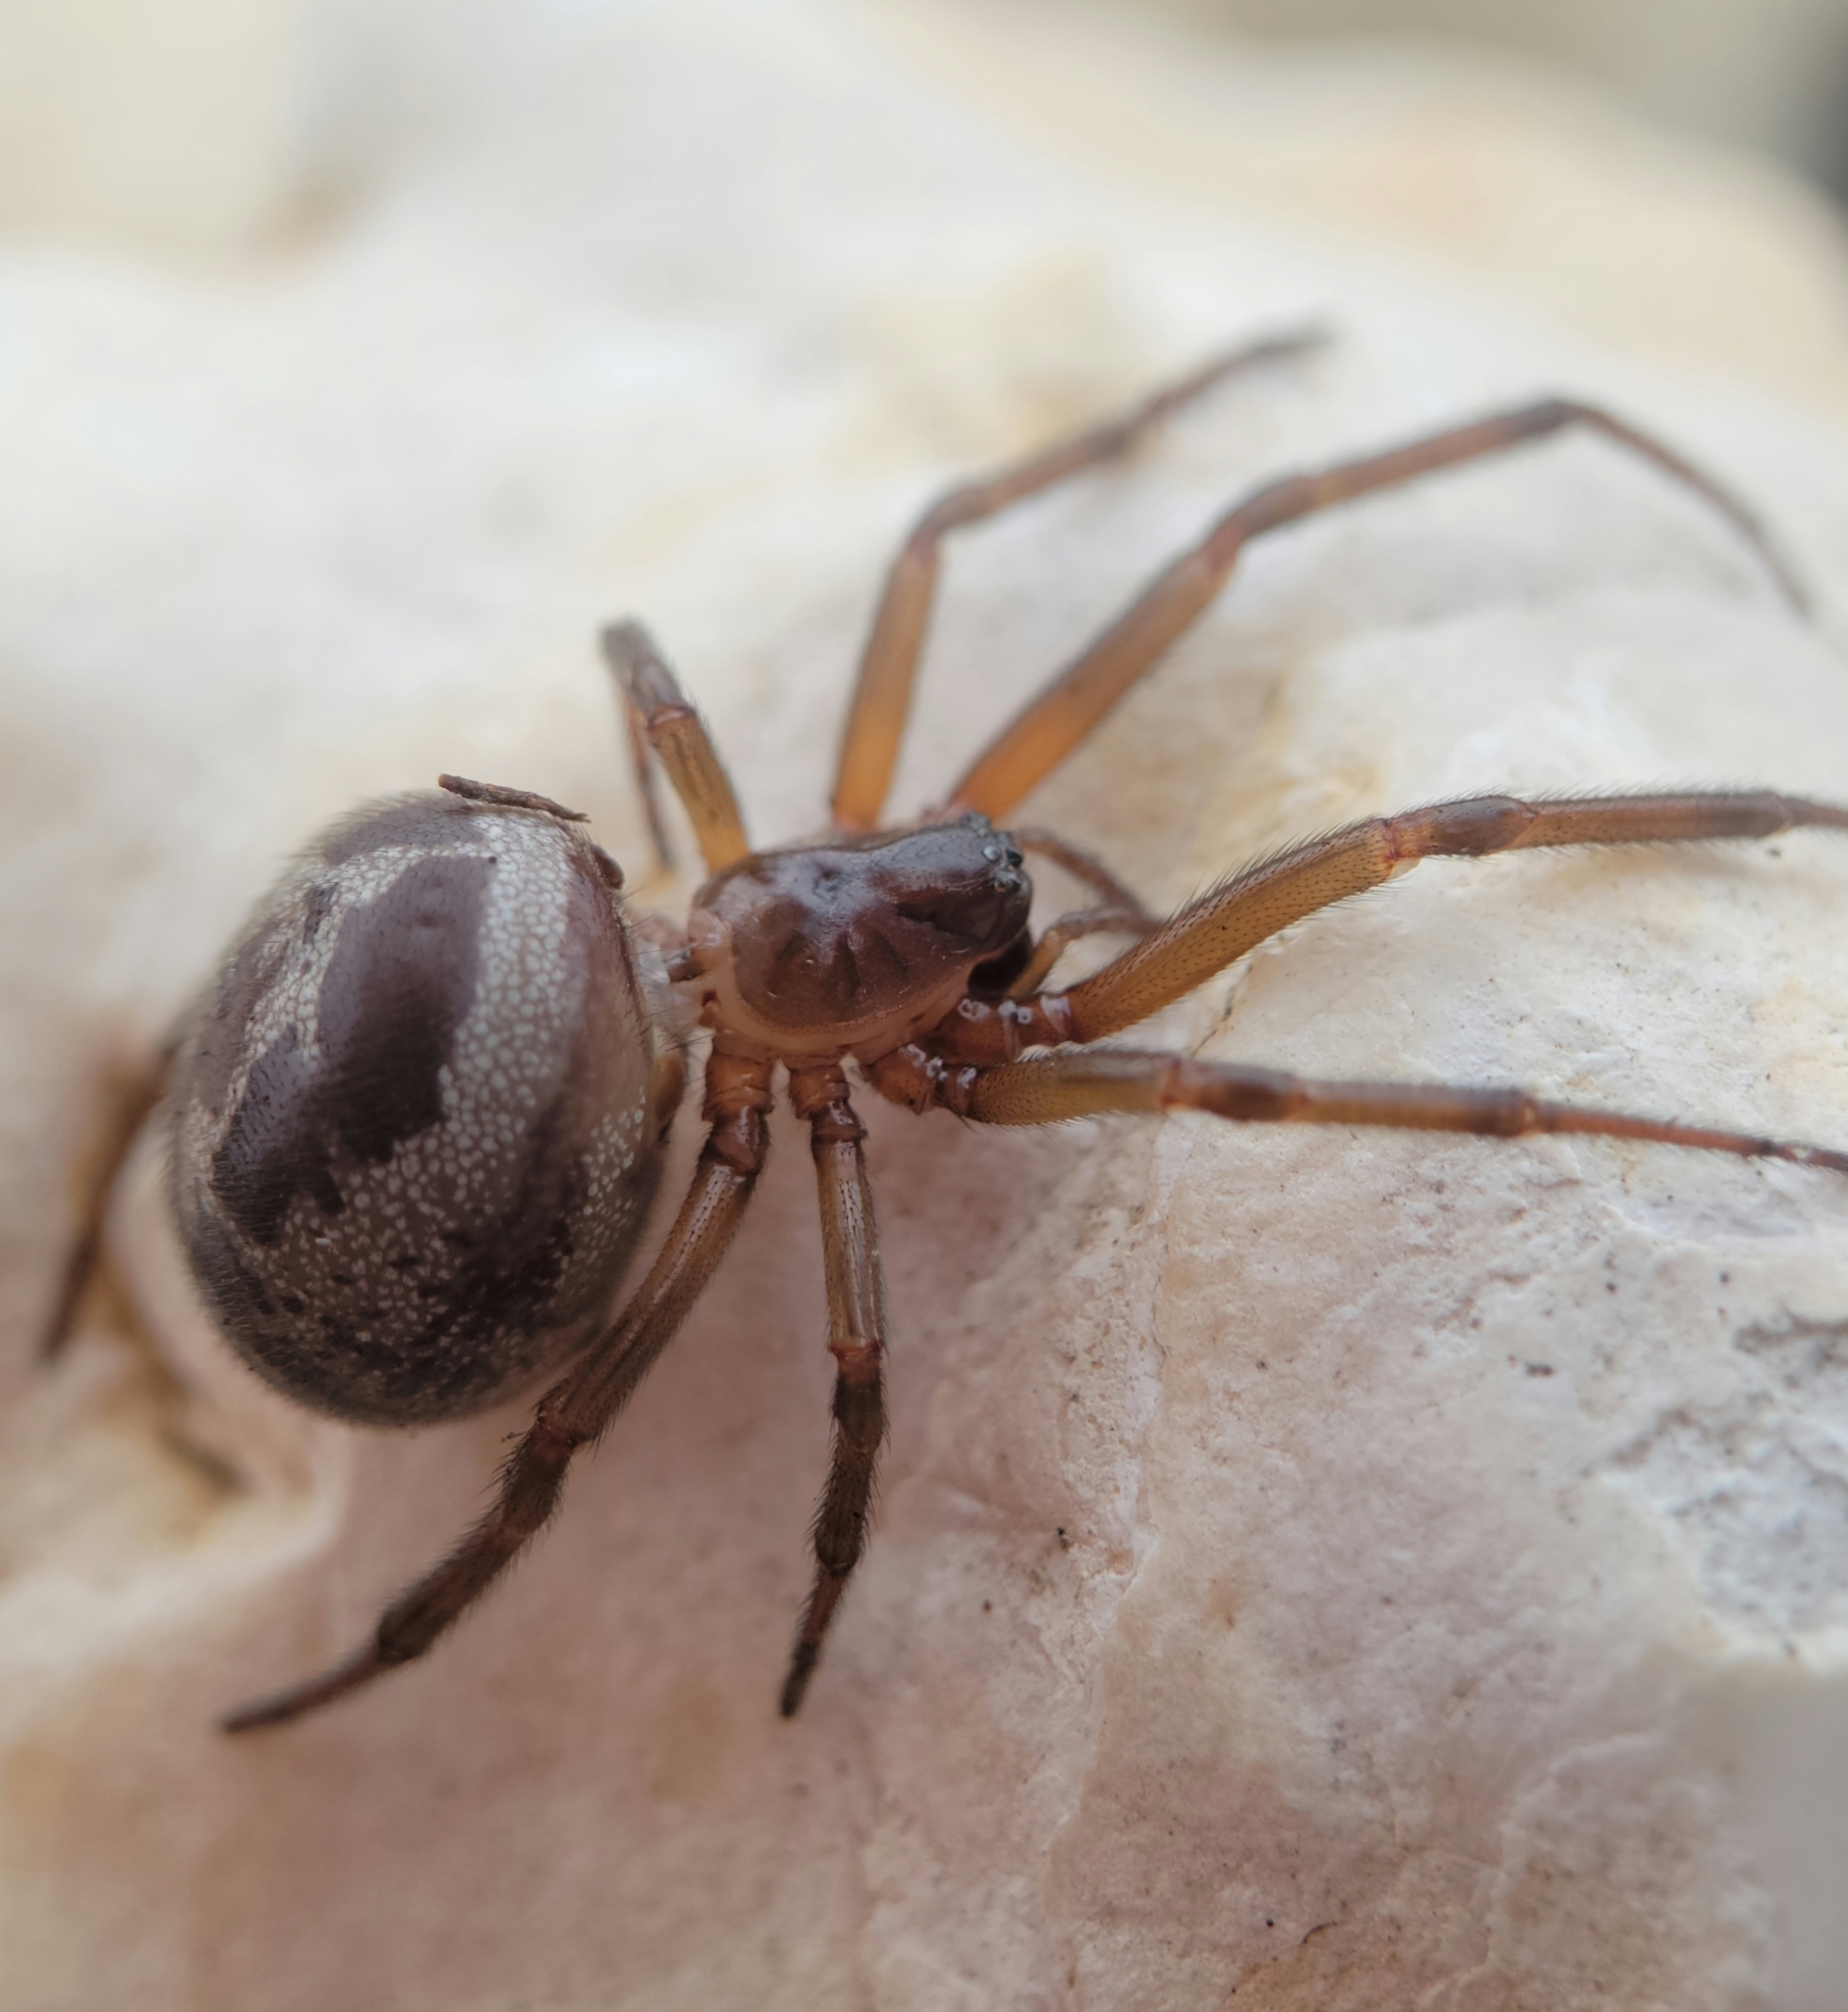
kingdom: Animalia
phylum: Arthropoda
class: Arachnida
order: Araneae
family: Theridiidae
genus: Steatoda
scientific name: Steatoda nobilis
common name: Cobweb weaver
